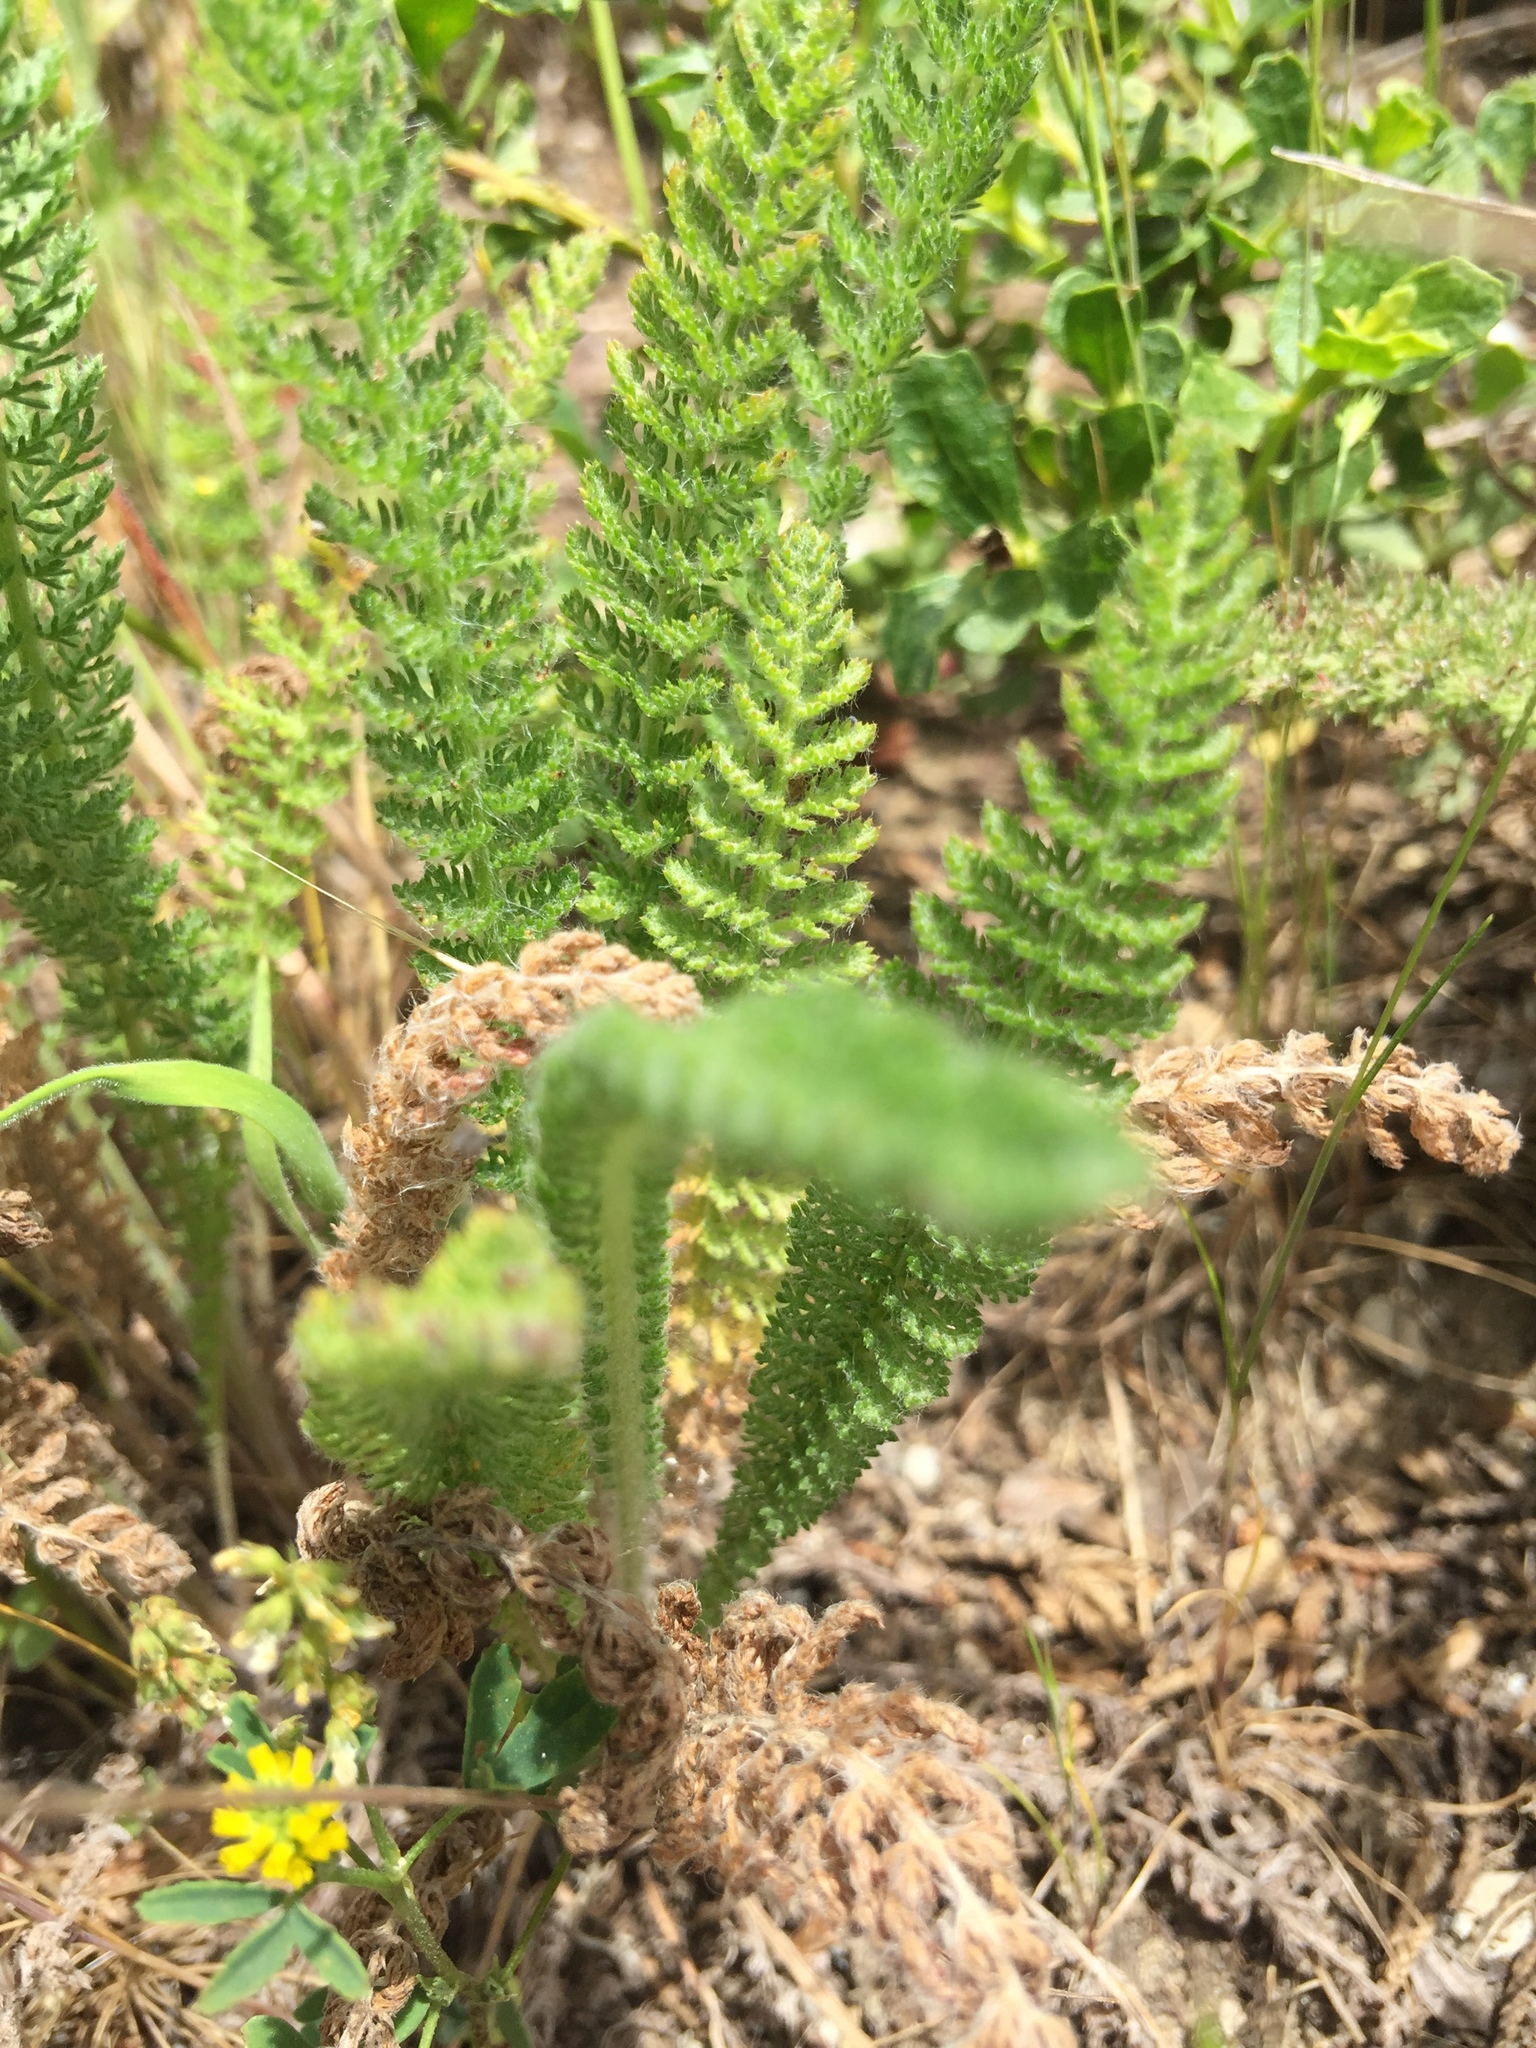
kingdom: Plantae
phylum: Tracheophyta
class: Magnoliopsida
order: Asterales
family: Asteraceae
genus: Achillea
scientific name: Achillea millefolium
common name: Yarrow
